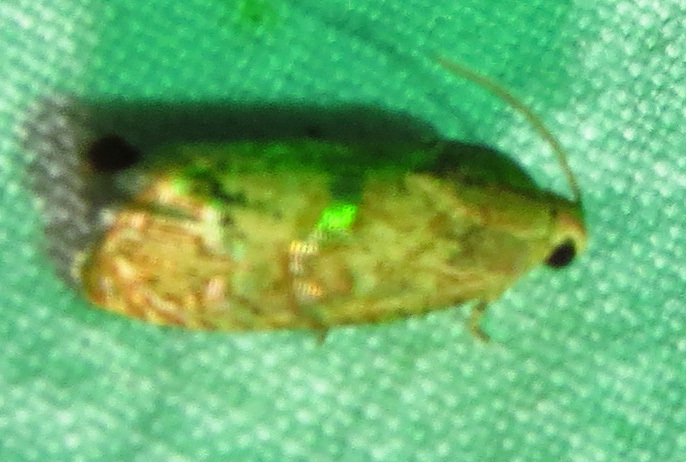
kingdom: Animalia
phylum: Arthropoda
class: Insecta
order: Lepidoptera
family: Tortricidae
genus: Cydia
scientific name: Cydia latiferreana
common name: Filbertworm moth
